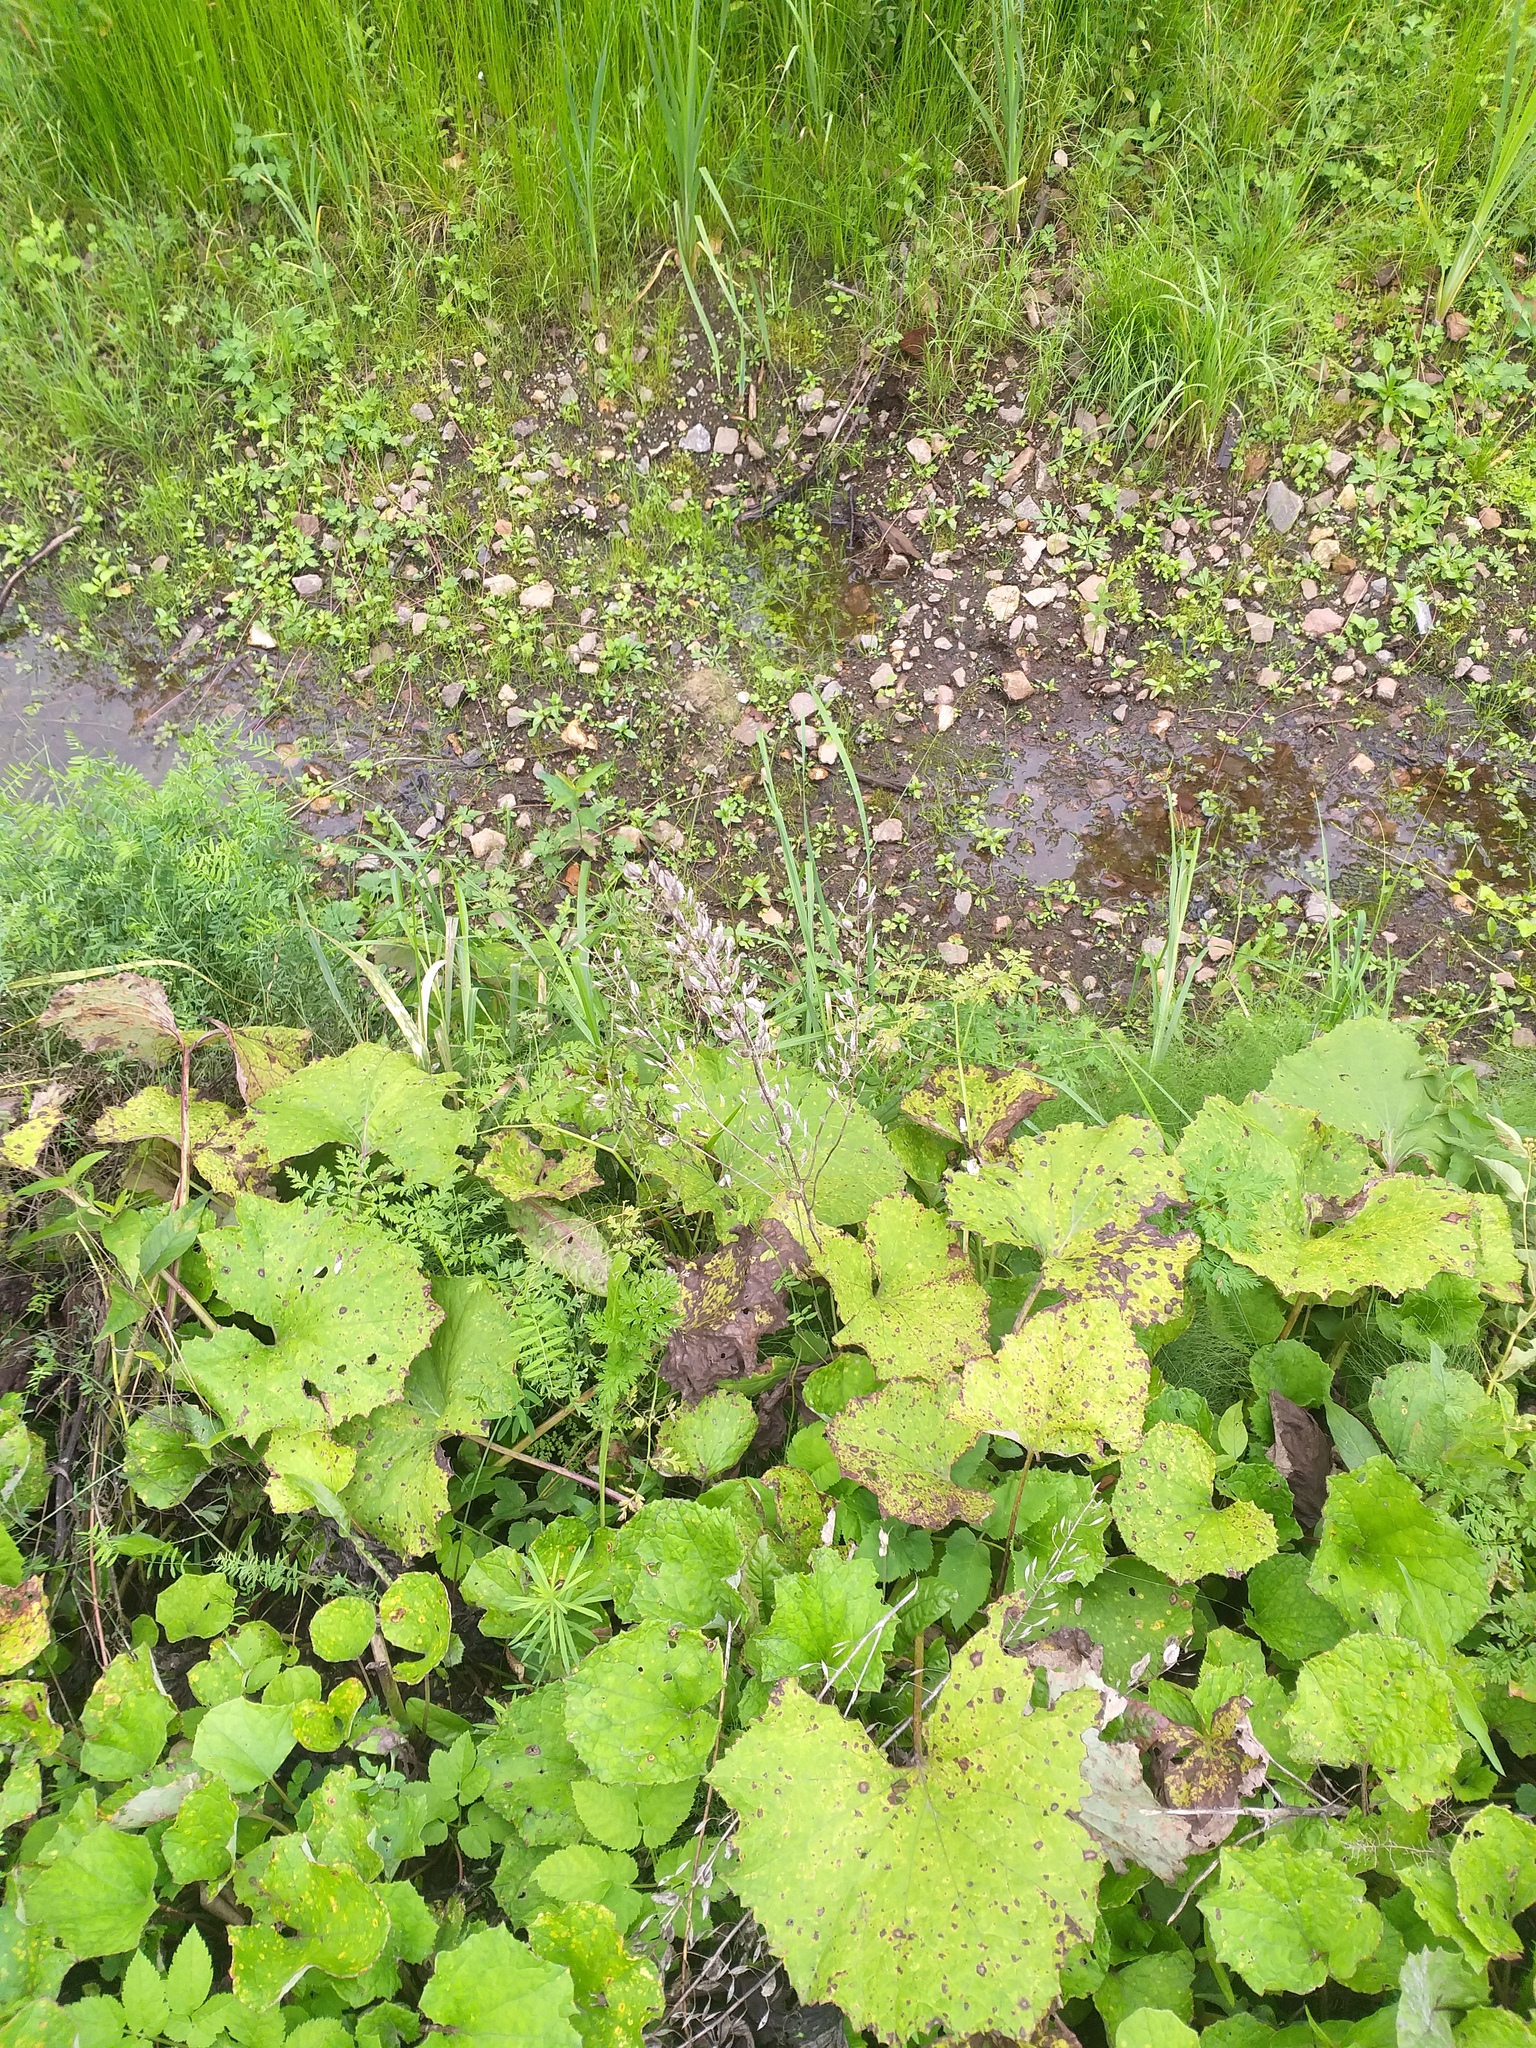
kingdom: Plantae
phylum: Tracheophyta
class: Magnoliopsida
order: Brassicales
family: Brassicaceae
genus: Thlaspi
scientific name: Thlaspi arvense
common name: Field pennycress
